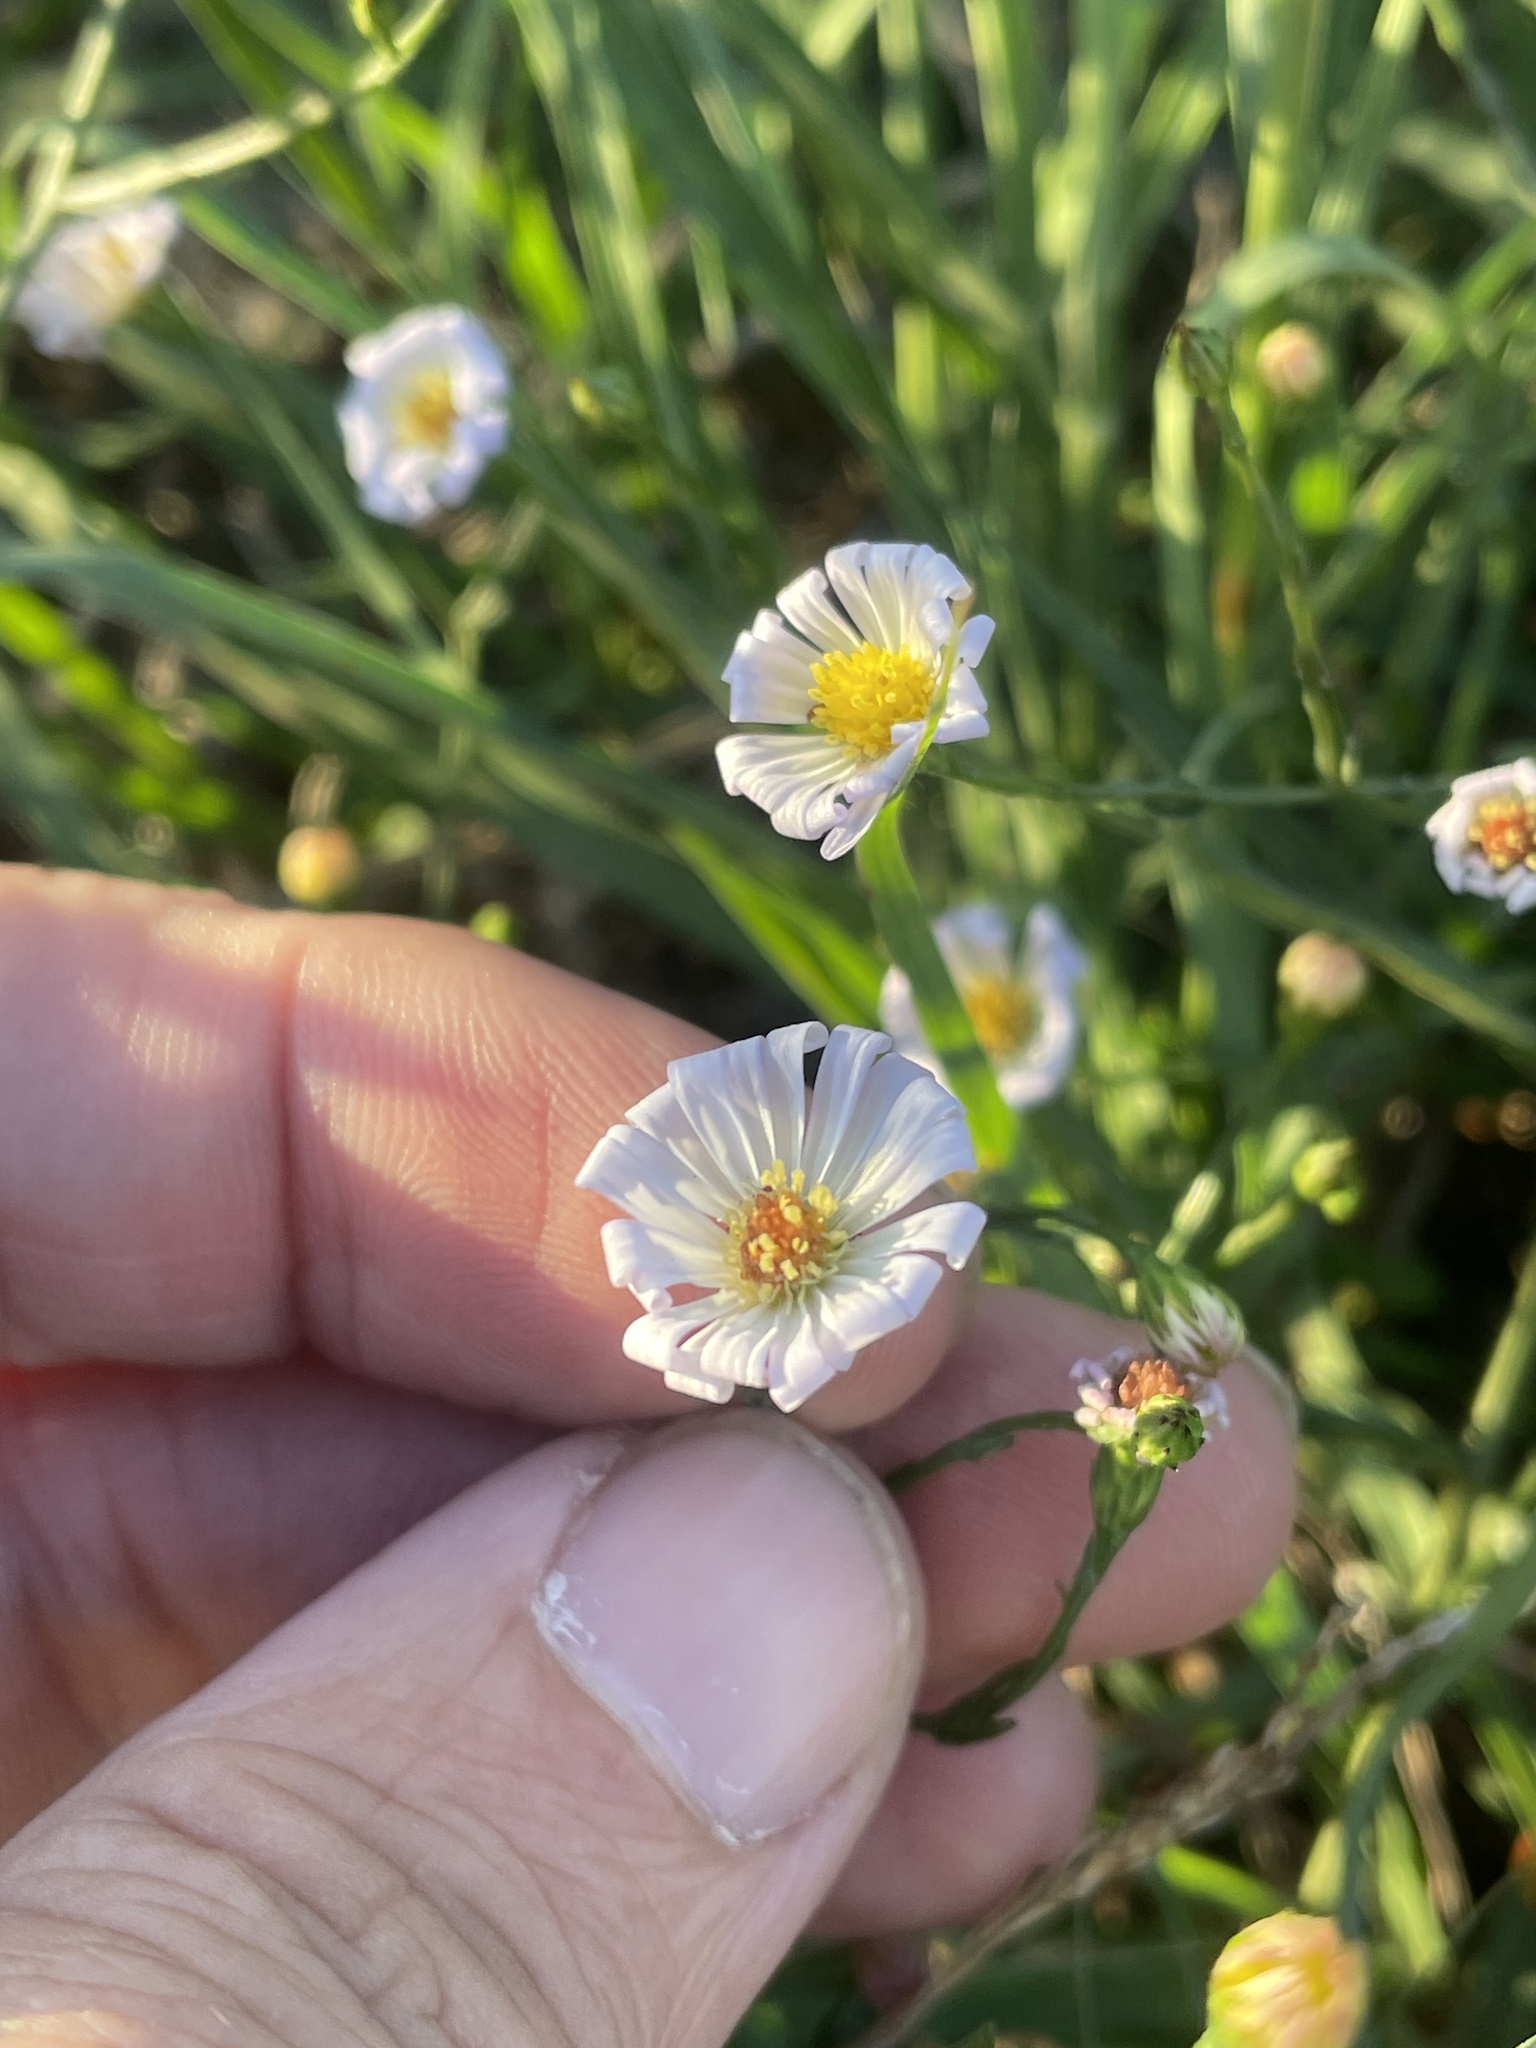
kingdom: Plantae
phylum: Tracheophyta
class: Magnoliopsida
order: Asterales
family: Asteraceae
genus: Symphyotrichum
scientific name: Symphyotrichum divaricatum
